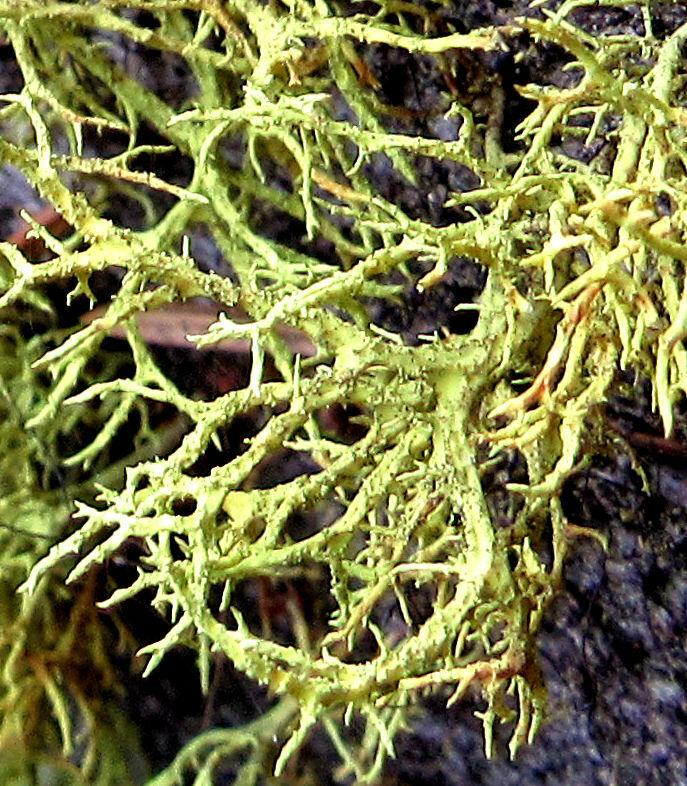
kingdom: Fungi
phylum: Ascomycota
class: Lecanoromycetes
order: Lecanorales
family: Parmeliaceae
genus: Letharia
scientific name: Letharia vulpina
